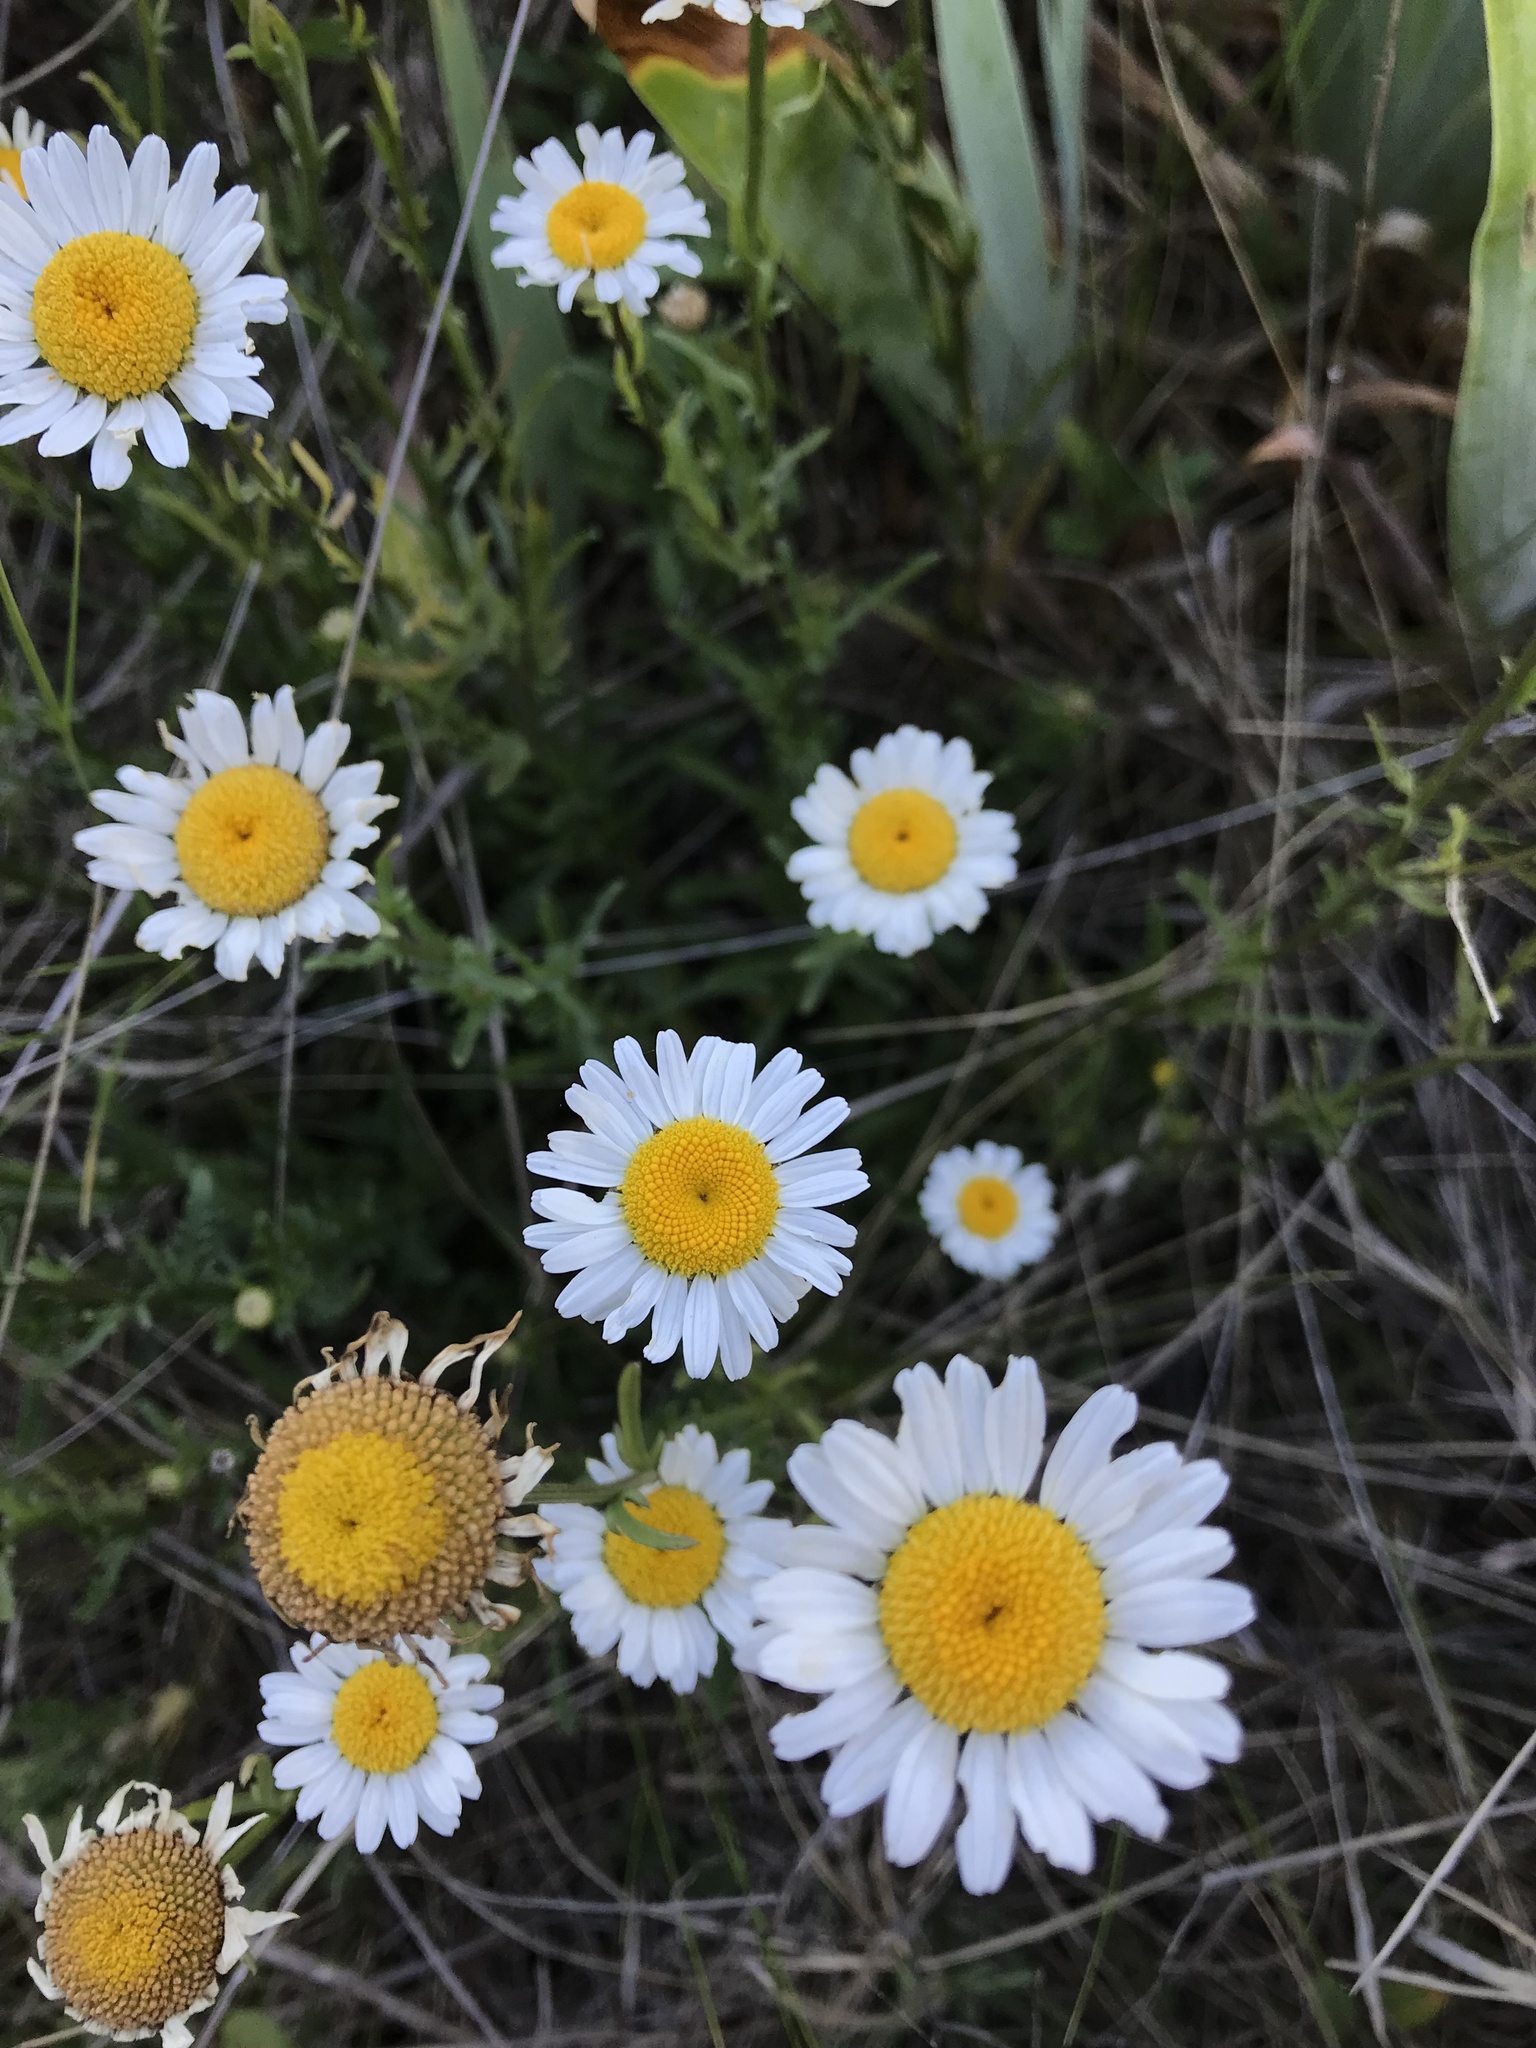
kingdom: Plantae
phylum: Tracheophyta
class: Magnoliopsida
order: Asterales
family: Asteraceae
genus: Leucanthemum
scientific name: Leucanthemum vulgare
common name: Oxeye daisy
